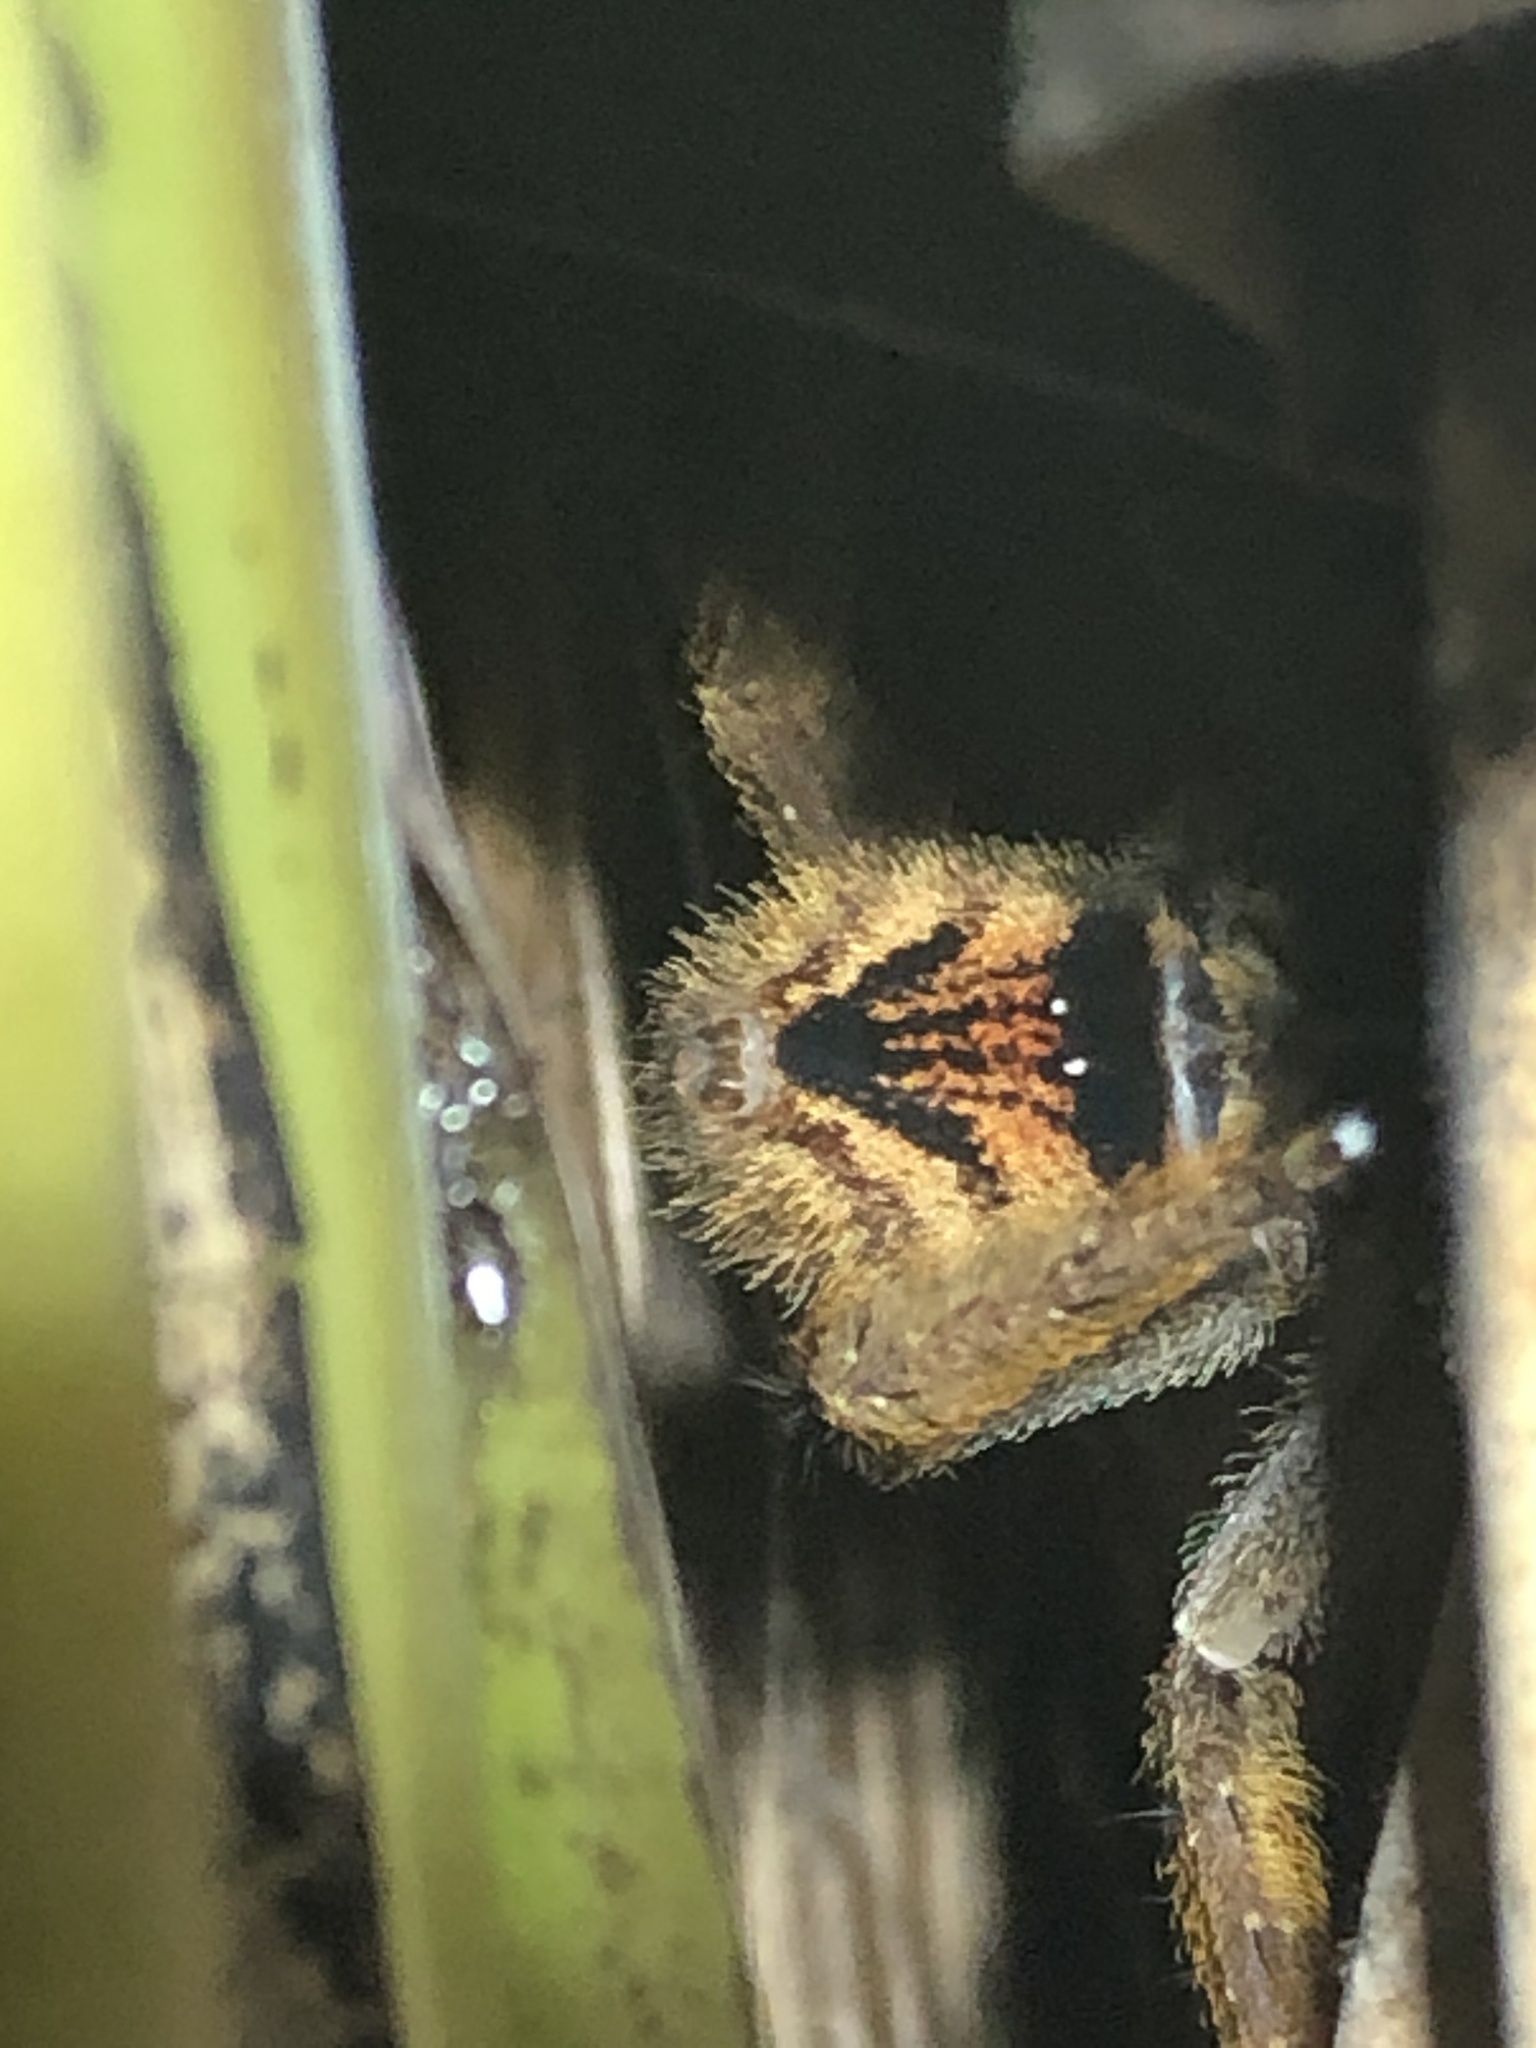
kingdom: Animalia
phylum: Arthropoda
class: Arachnida
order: Araneae
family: Ctenidae
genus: Phoneutria
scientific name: Phoneutria fera
